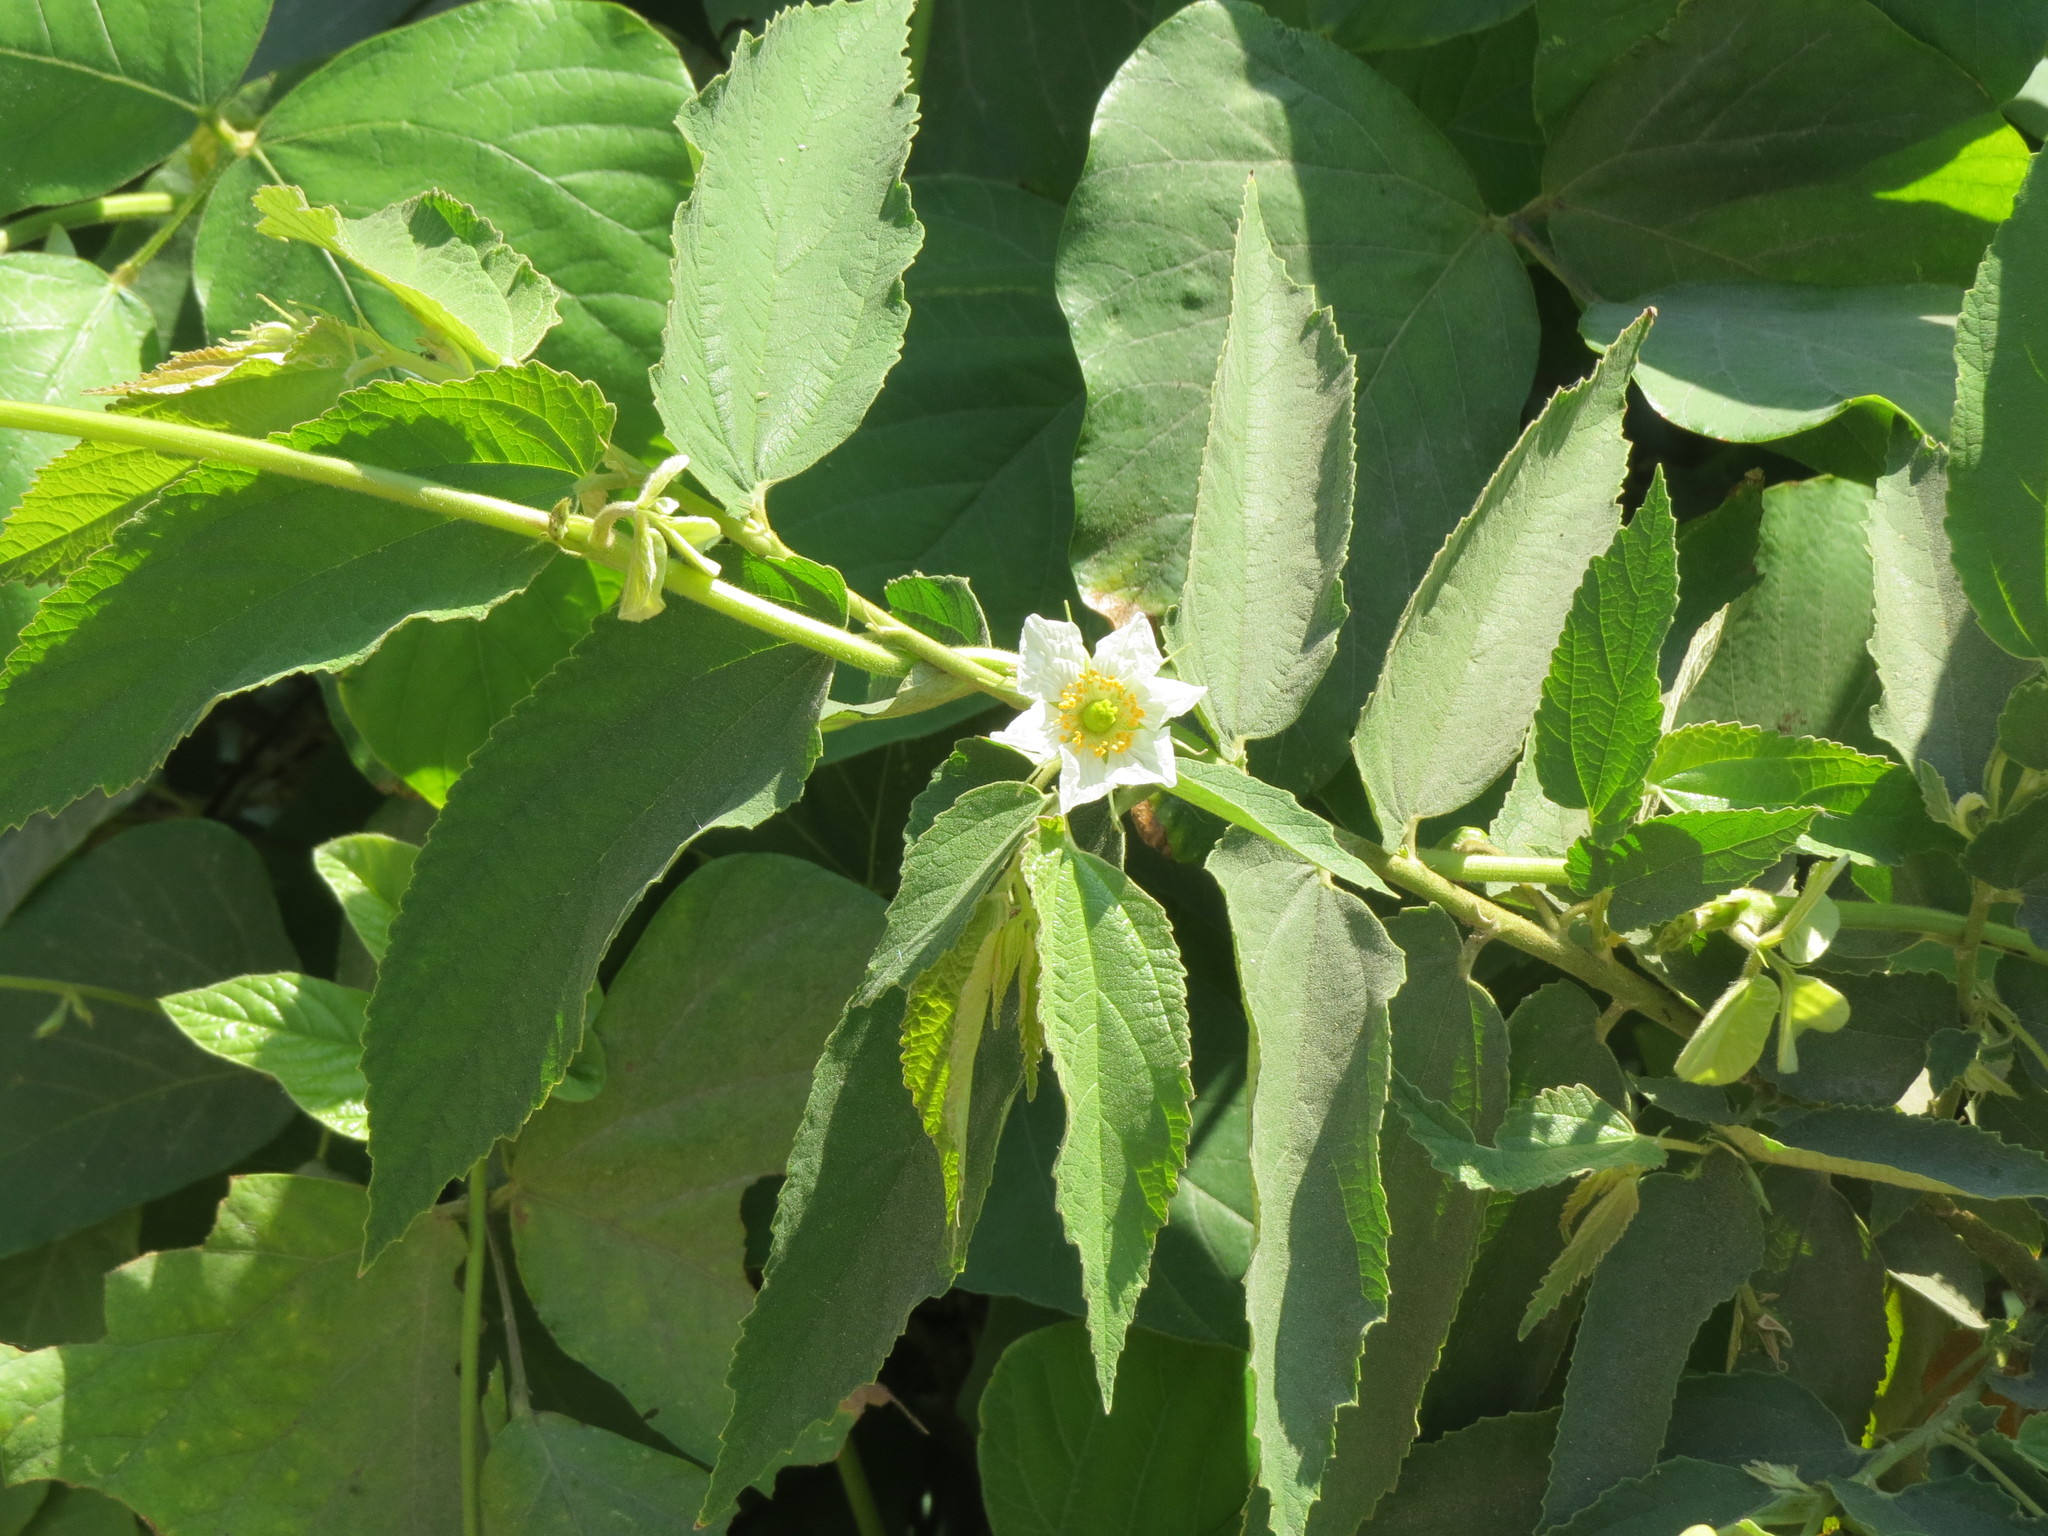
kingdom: Plantae
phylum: Tracheophyta
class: Magnoliopsida
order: Malvales
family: Muntingiaceae
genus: Muntingia
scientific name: Muntingia calabura
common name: Strawberrytree
